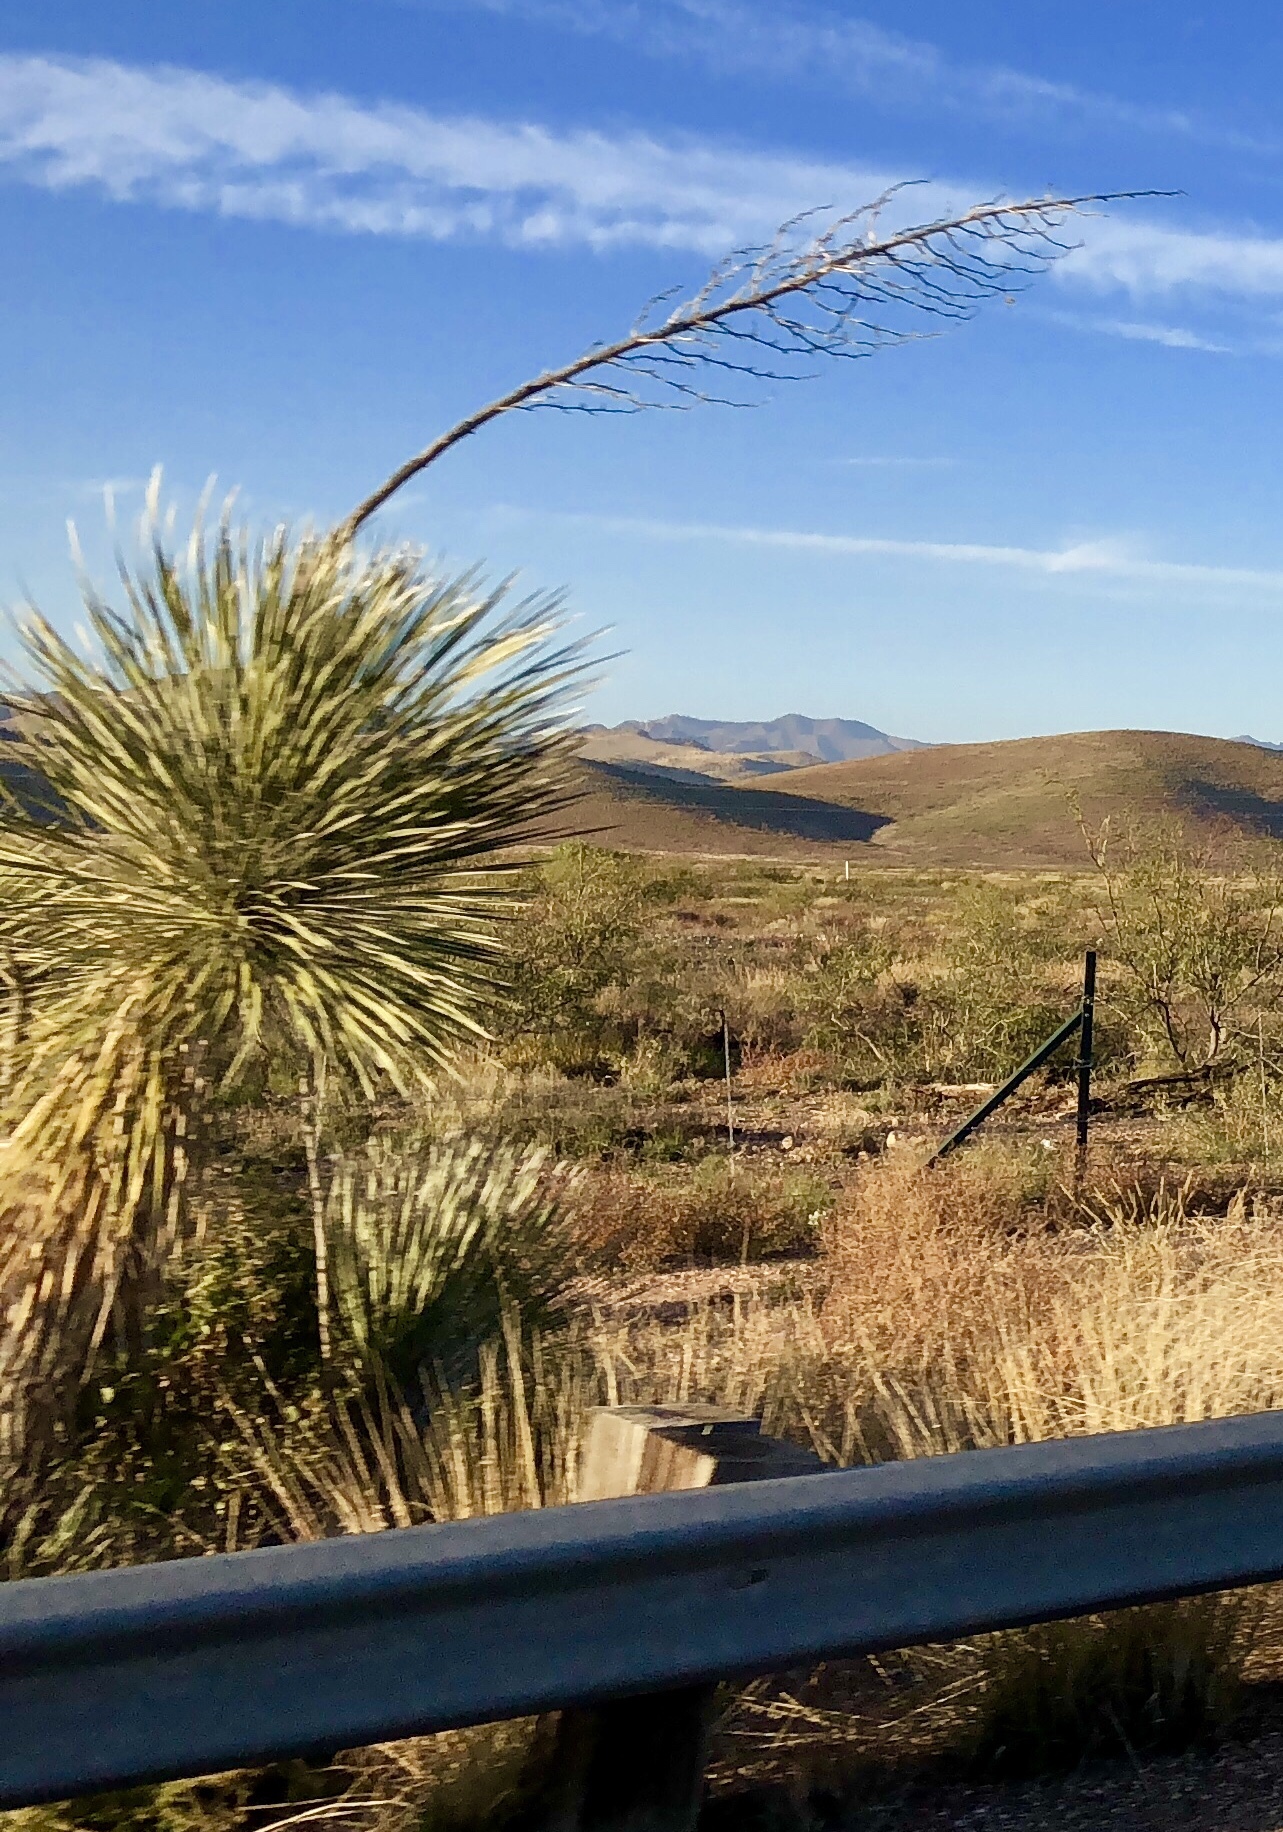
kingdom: Plantae
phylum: Tracheophyta
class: Liliopsida
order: Asparagales
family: Asparagaceae
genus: Yucca
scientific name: Yucca elata
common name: Palmella
